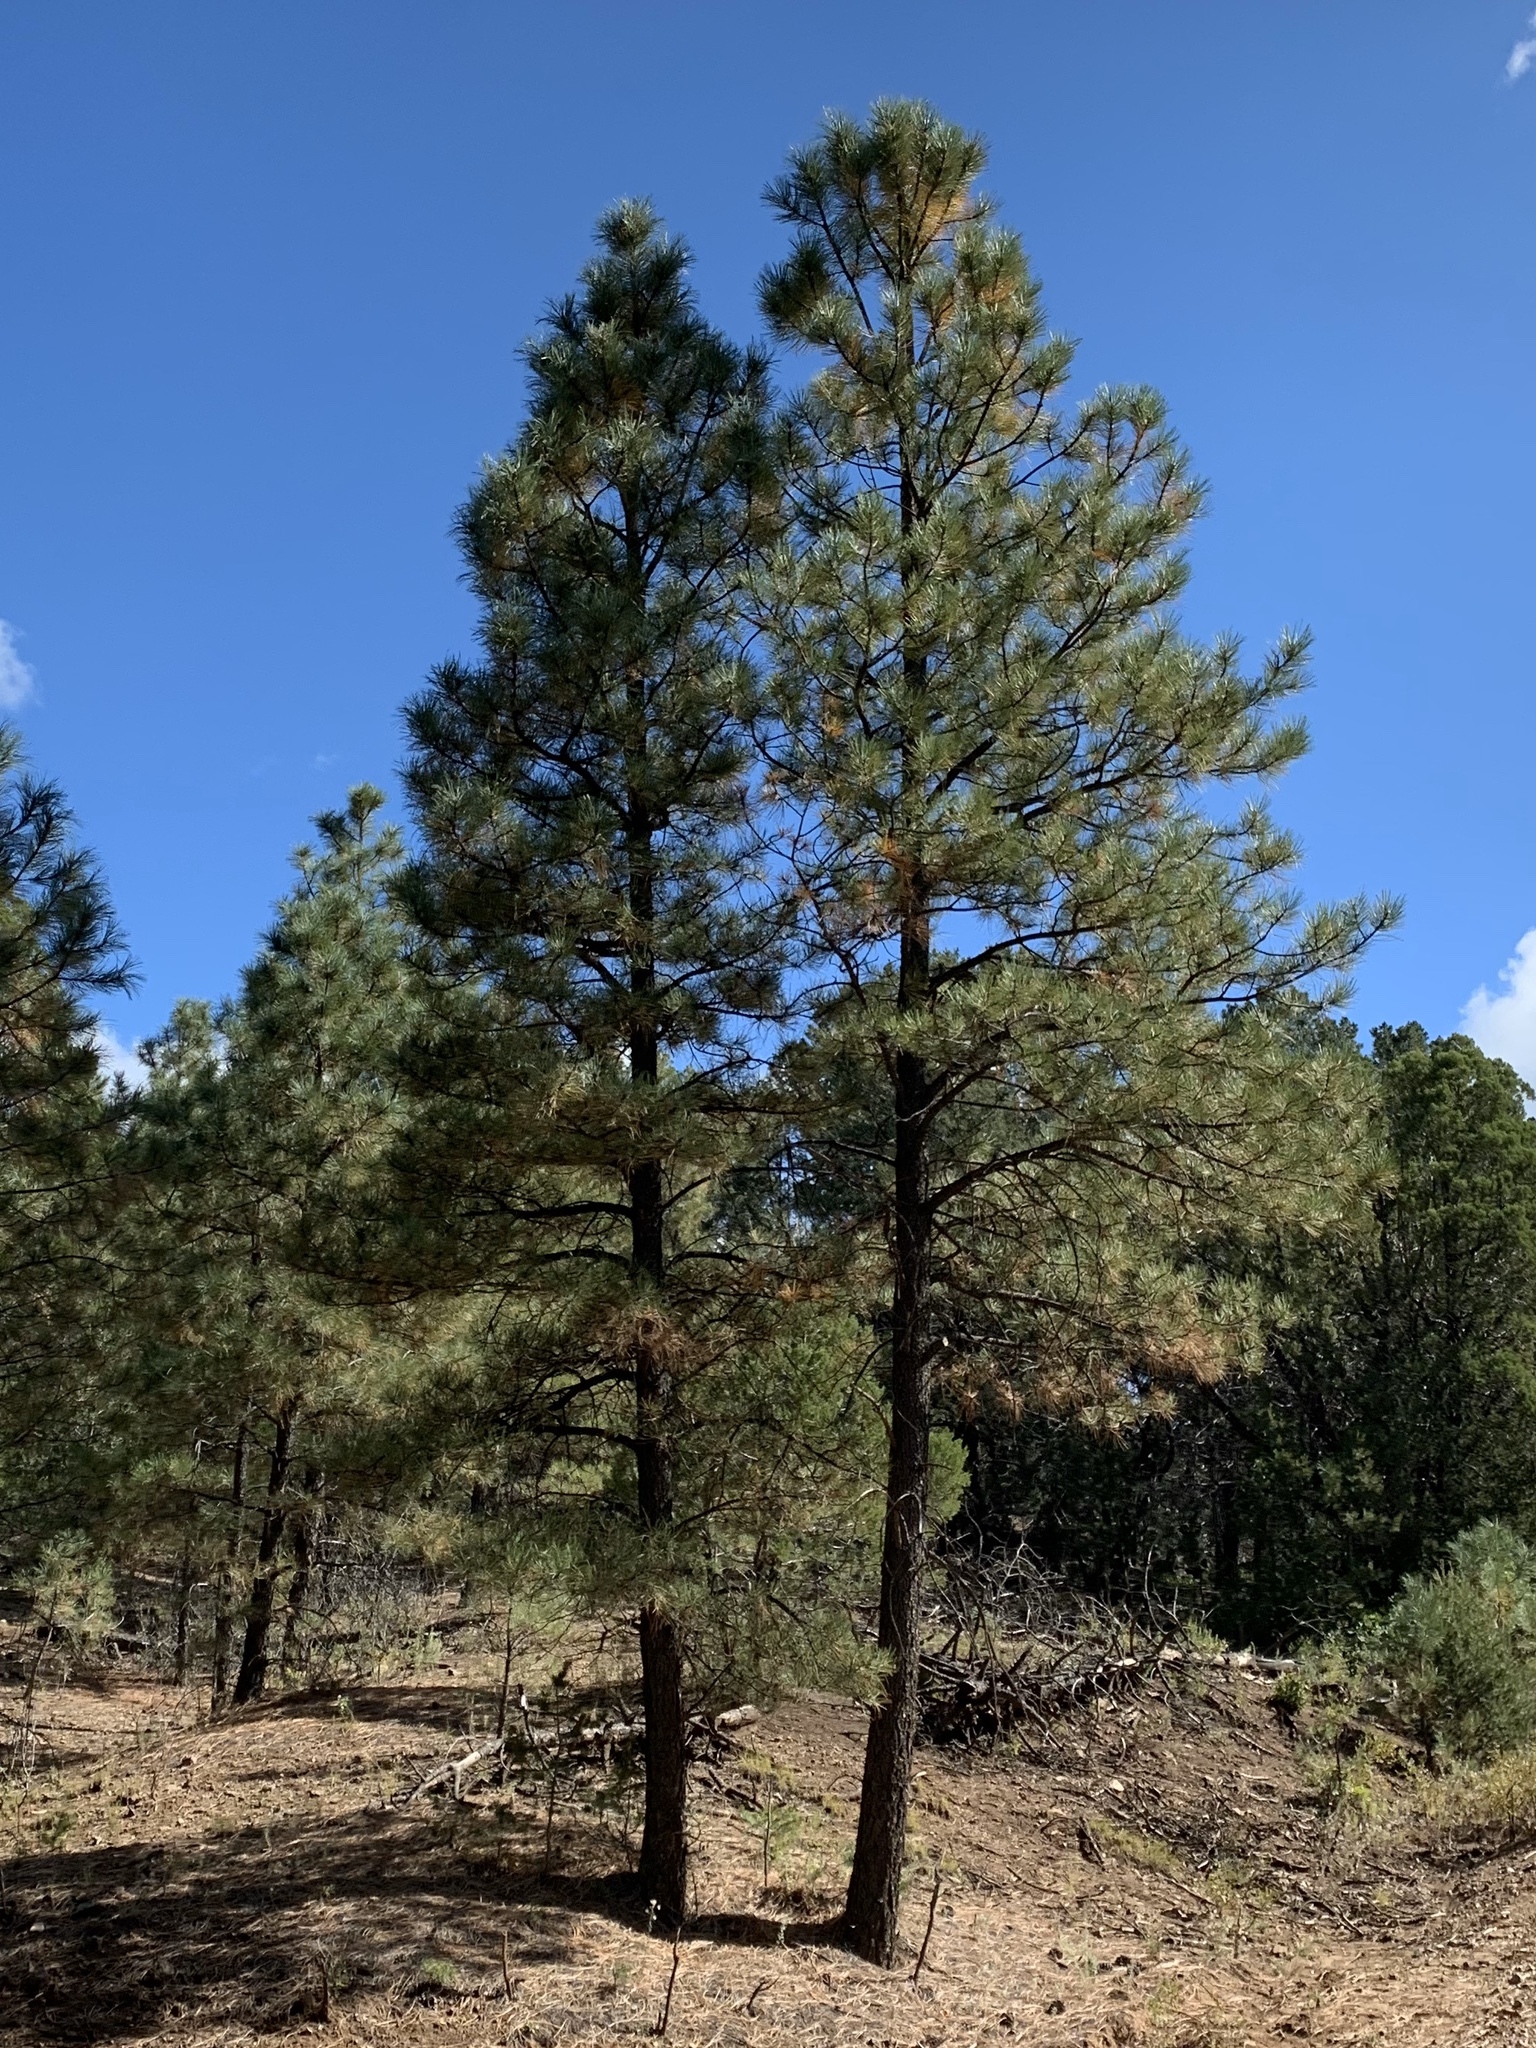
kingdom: Plantae
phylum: Tracheophyta
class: Pinopsida
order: Pinales
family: Pinaceae
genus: Pinus
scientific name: Pinus ponderosa
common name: Western yellow-pine
